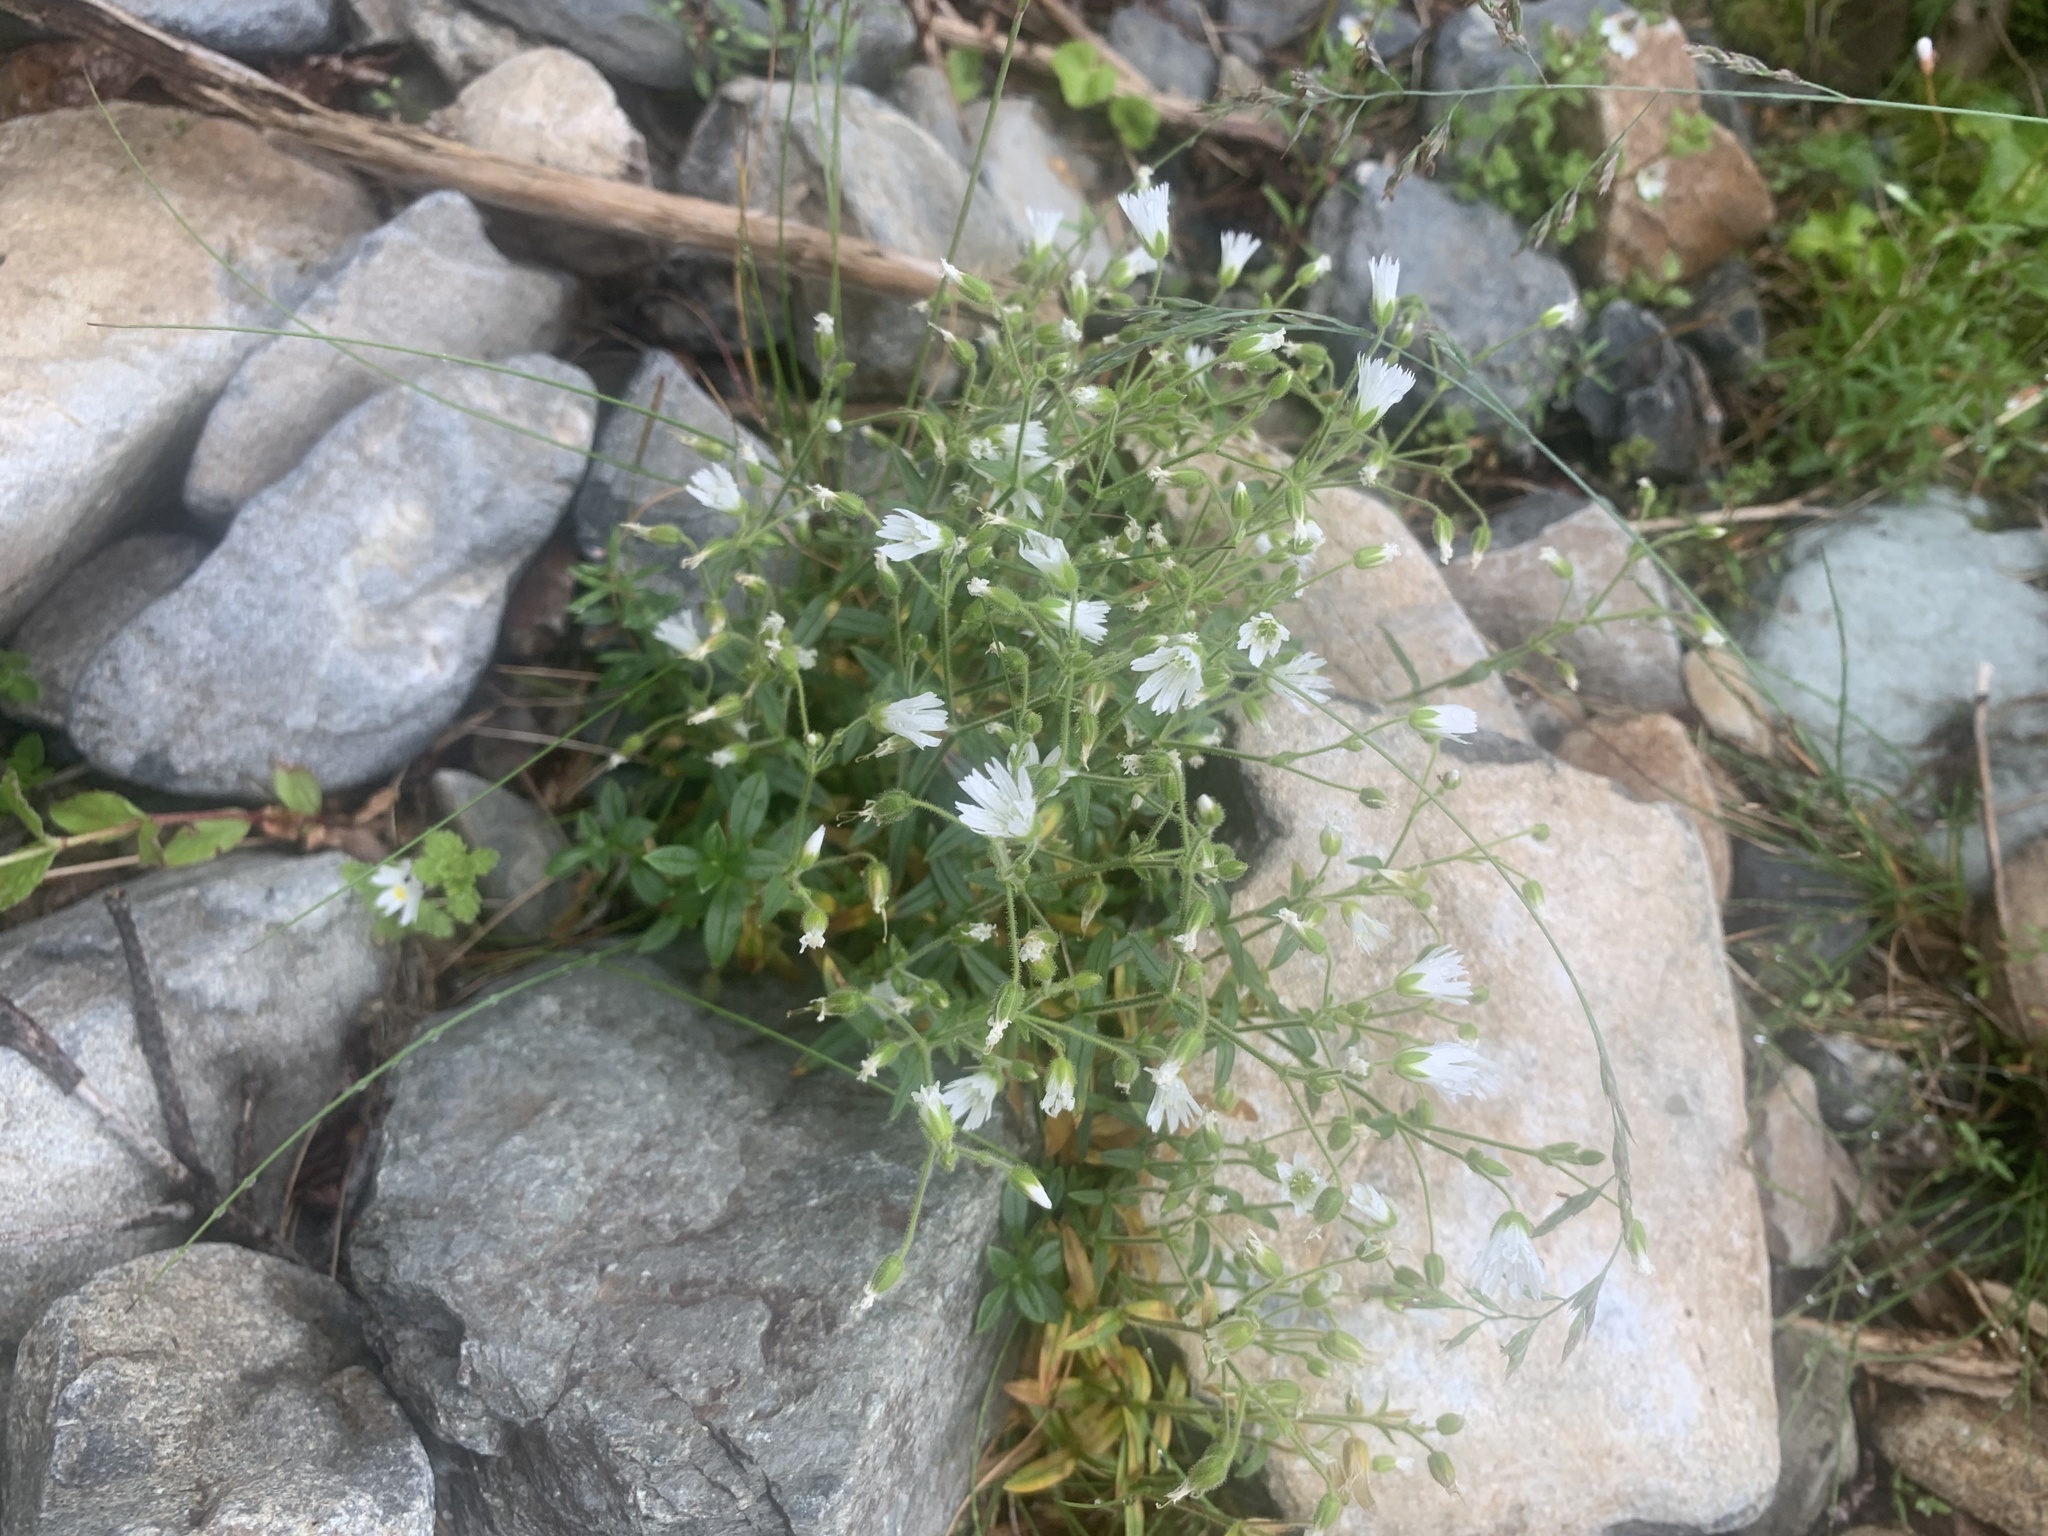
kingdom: Plantae
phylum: Tracheophyta
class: Magnoliopsida
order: Caryophyllales
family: Caryophyllaceae
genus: Cerastium
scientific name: Cerastium schizopetalum
